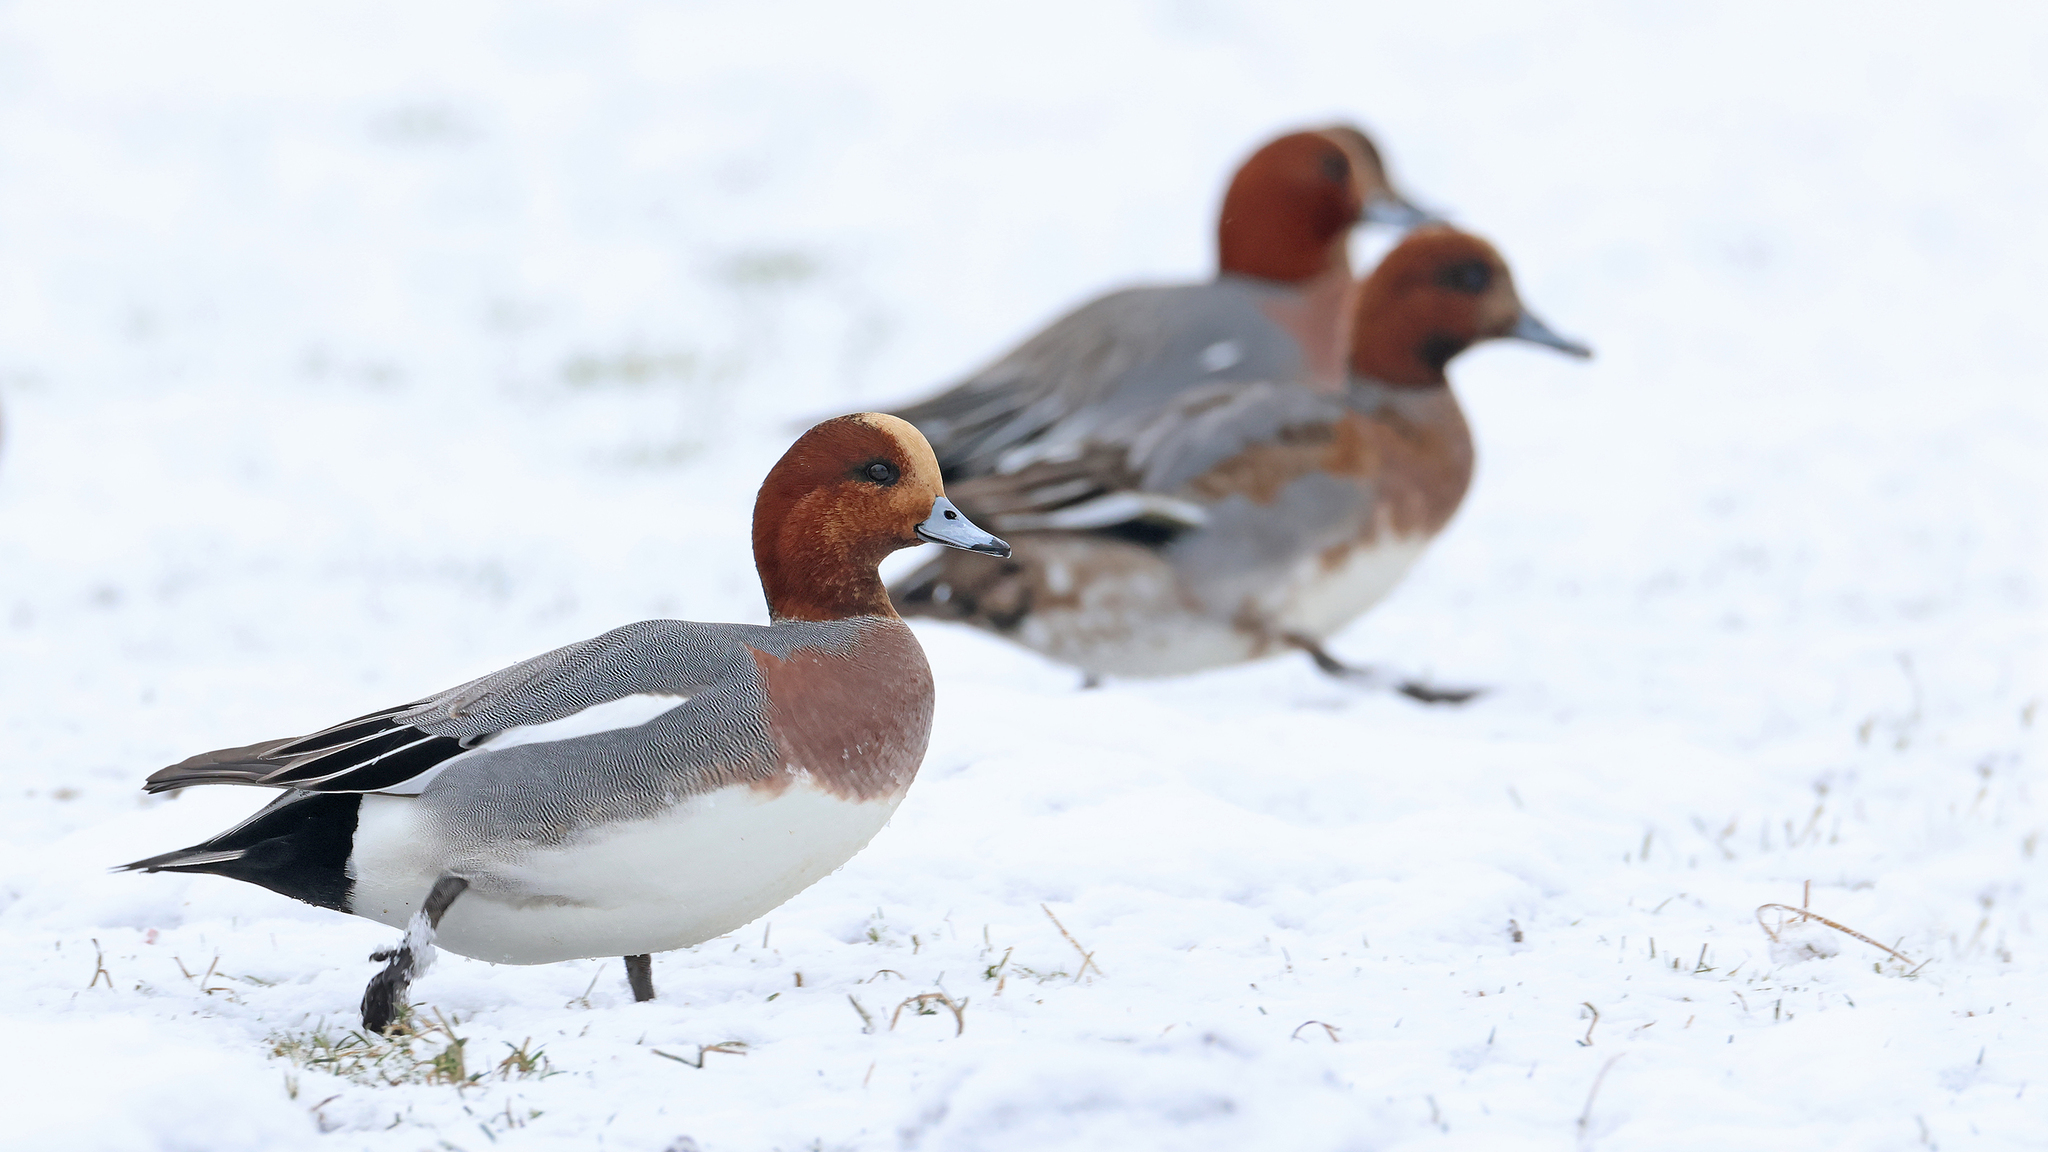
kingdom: Animalia
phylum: Chordata
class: Aves
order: Anseriformes
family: Anatidae
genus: Mareca
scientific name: Mareca penelope
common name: Eurasian wigeon
